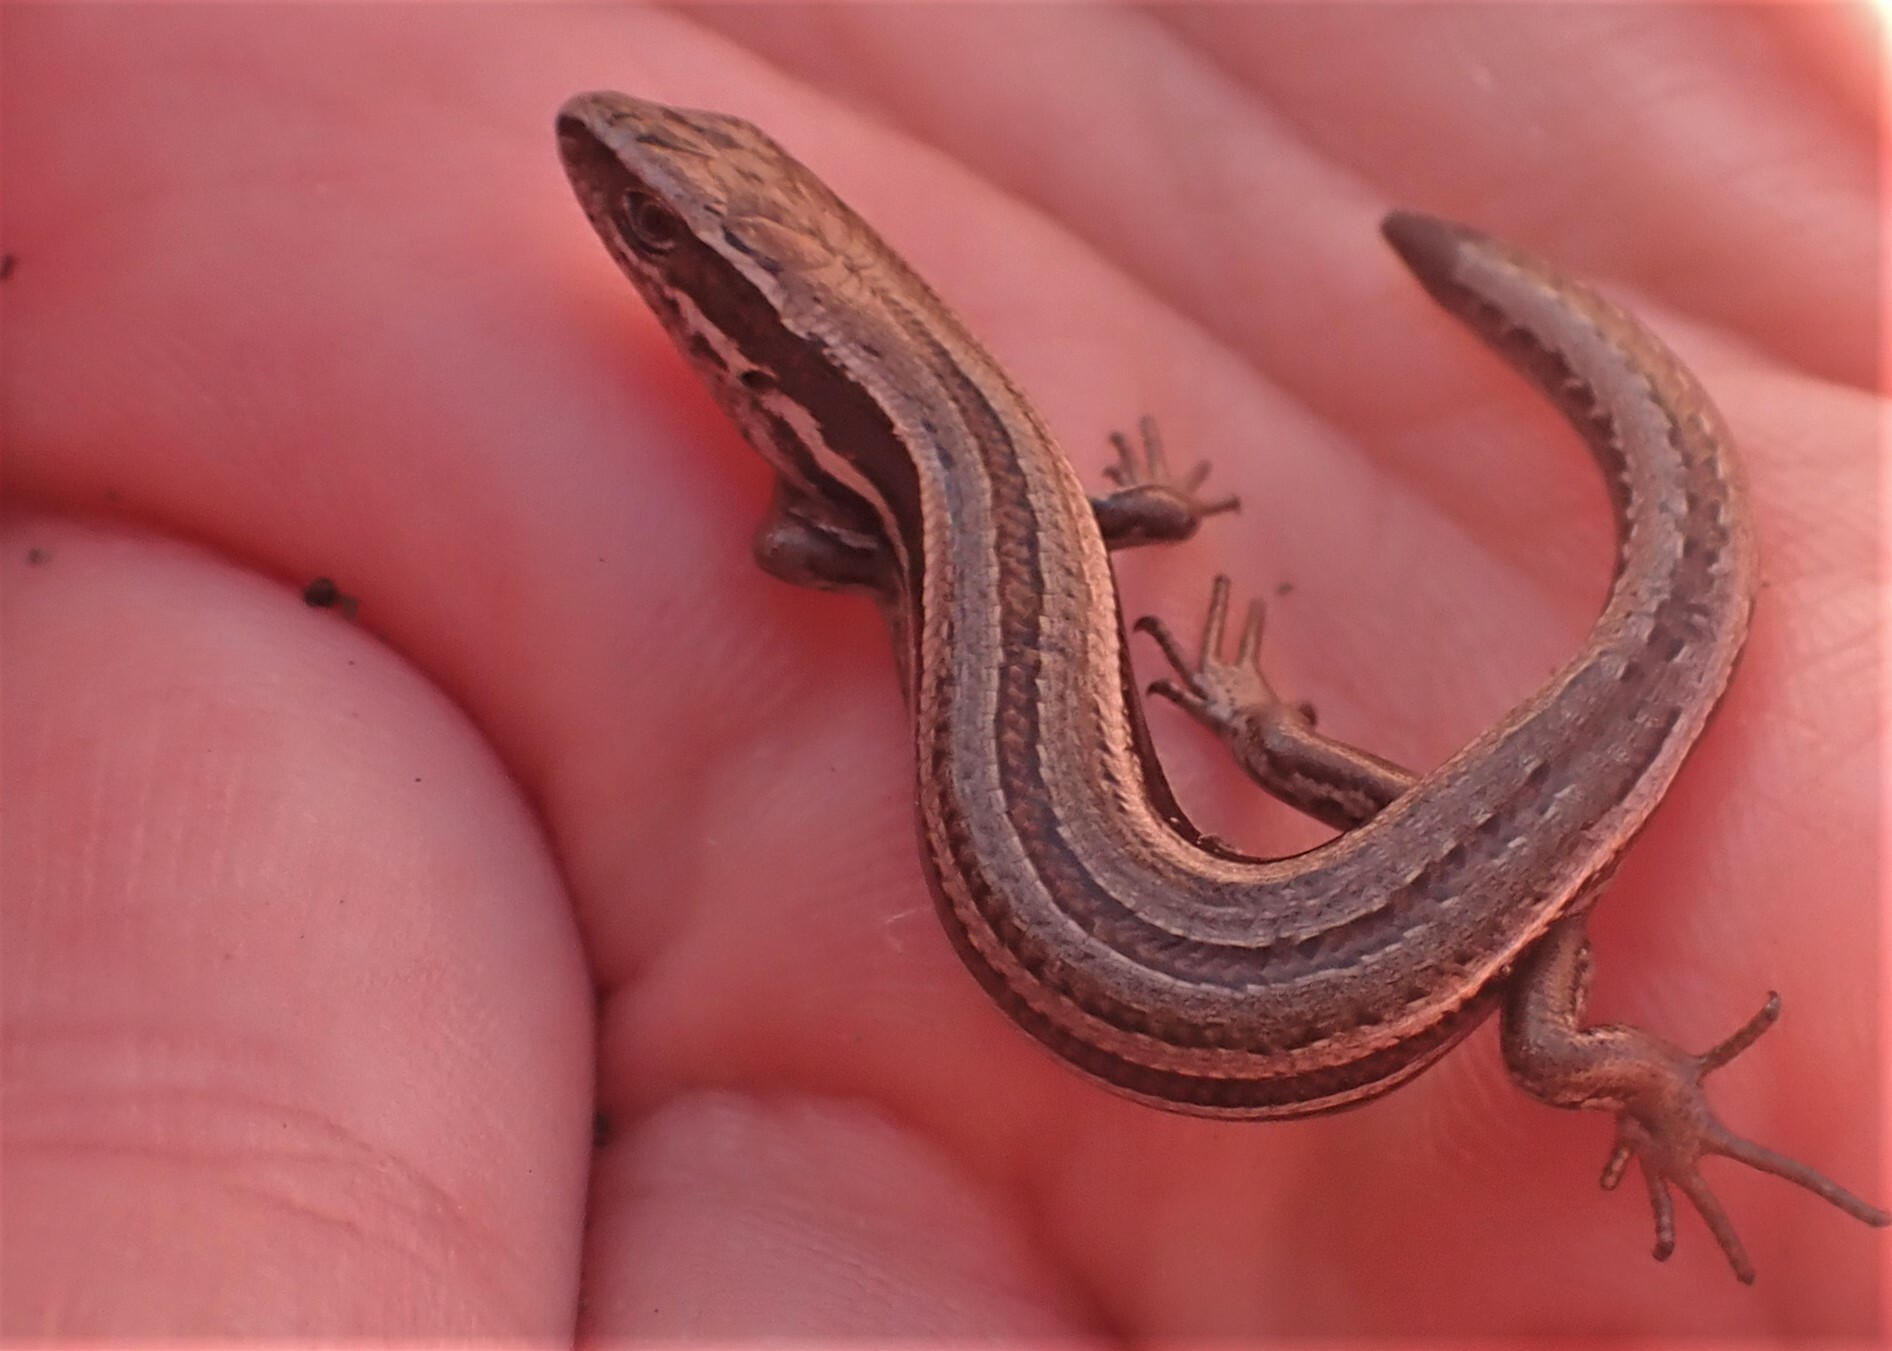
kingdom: Animalia
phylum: Chordata
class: Squamata
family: Scincidae
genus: Oligosoma
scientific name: Oligosoma maccanni
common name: Mccann’s skink
